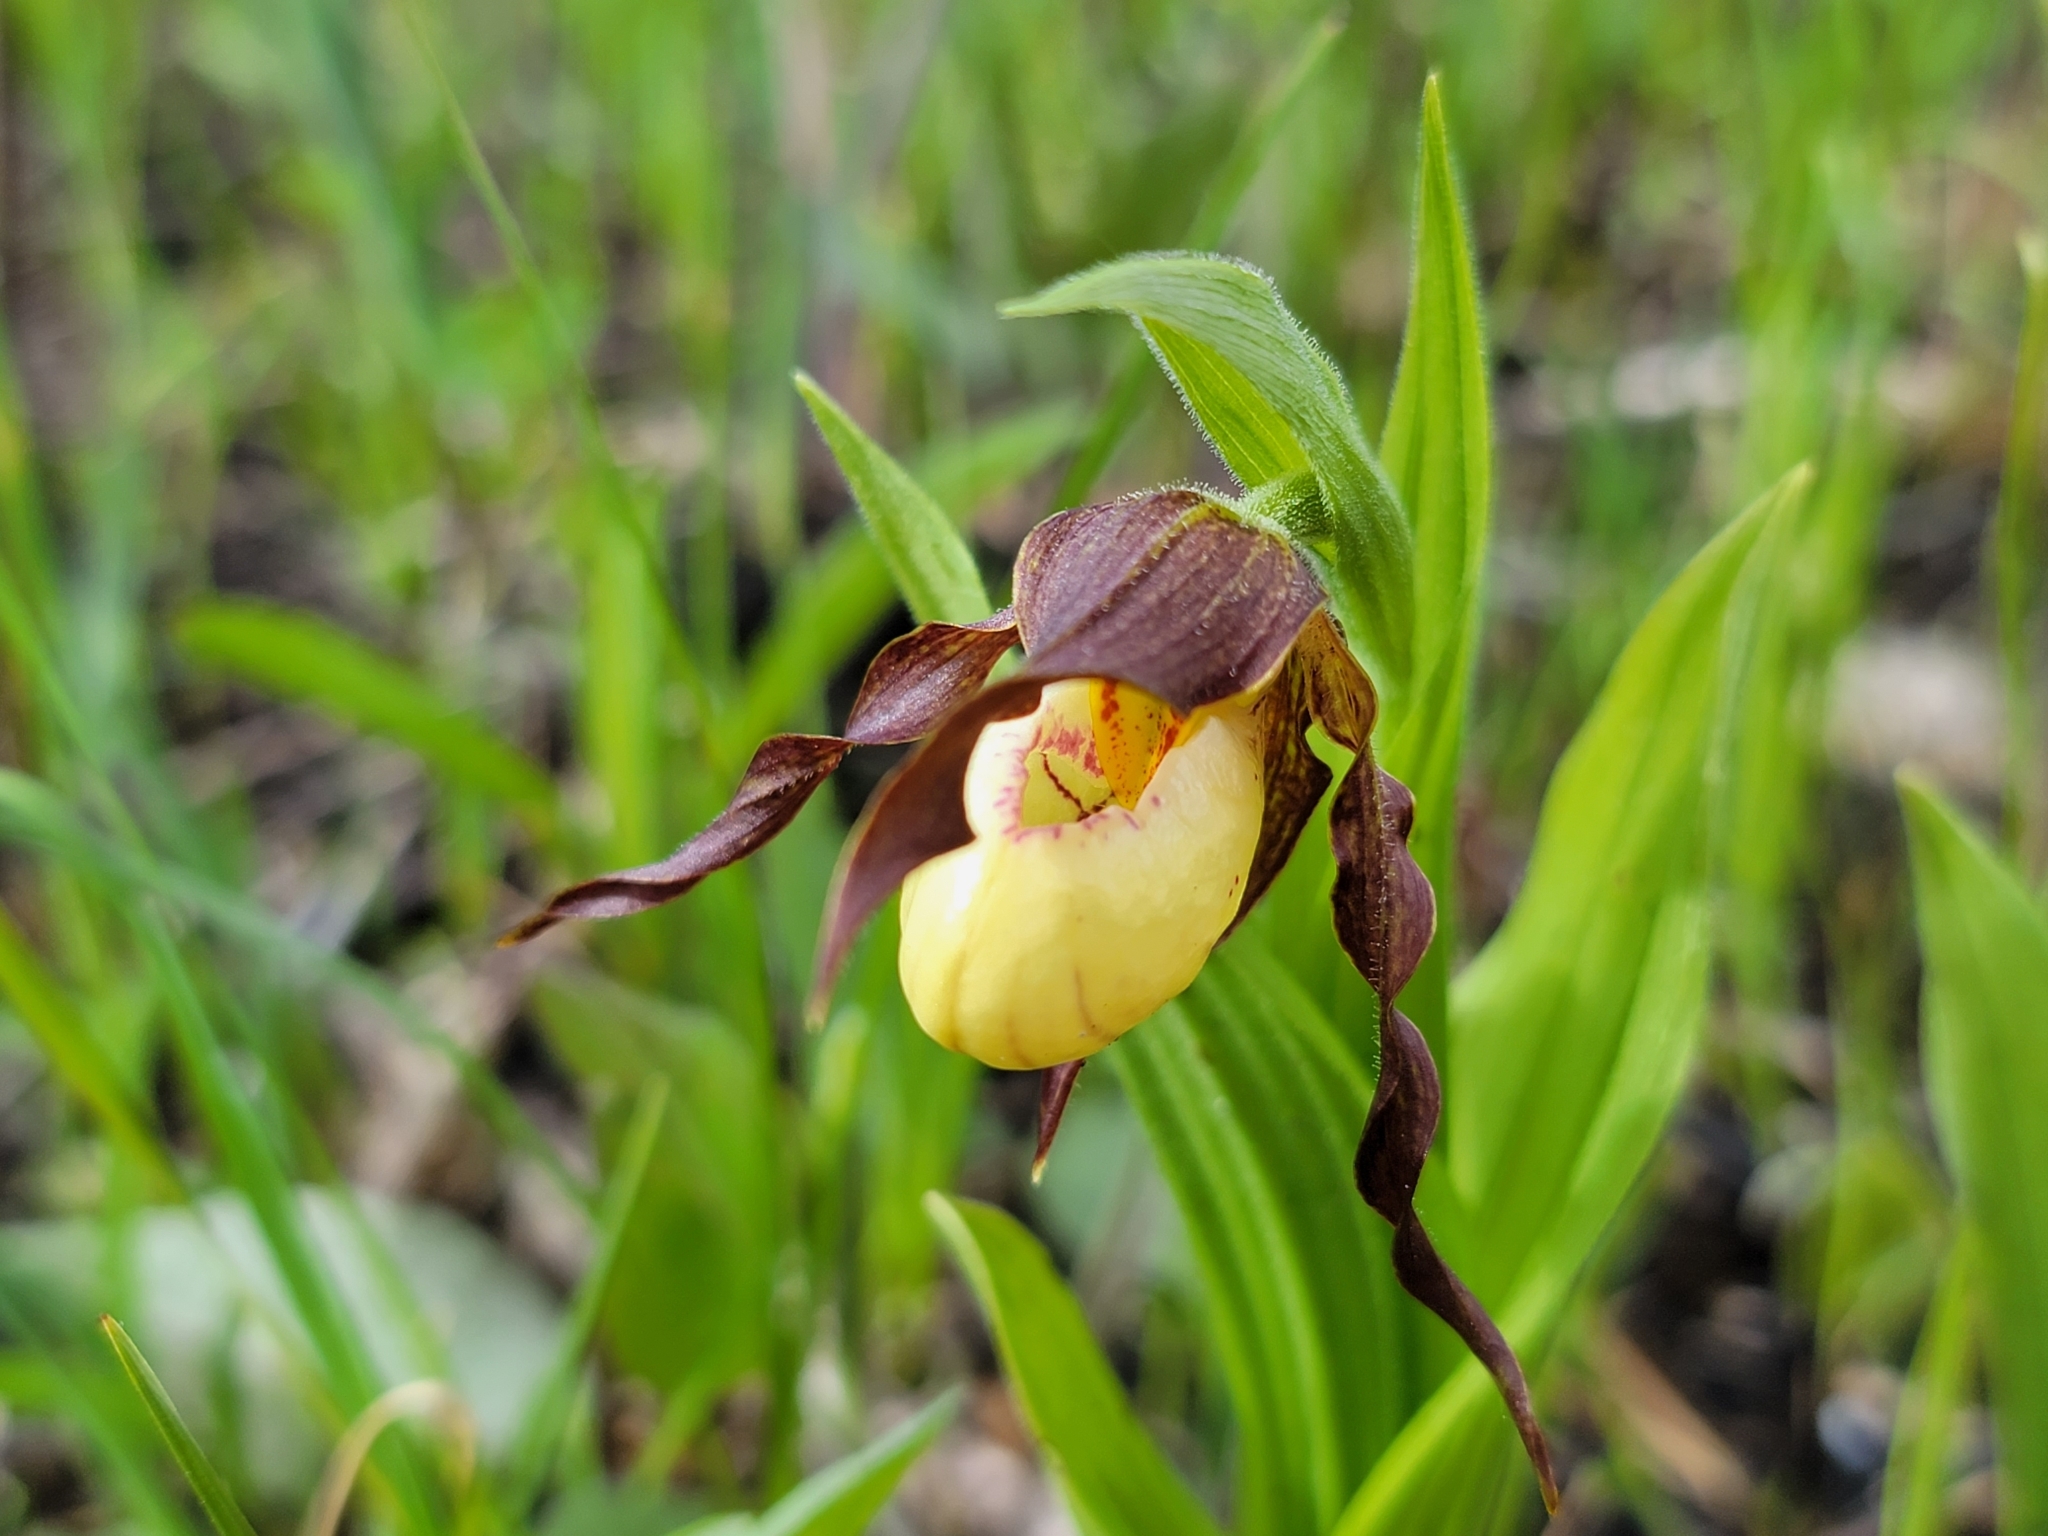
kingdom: Plantae
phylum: Tracheophyta
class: Liliopsida
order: Asparagales
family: Orchidaceae
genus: Cypripedium
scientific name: Cypripedium andrewsii
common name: Andrew's lady's-slipper
